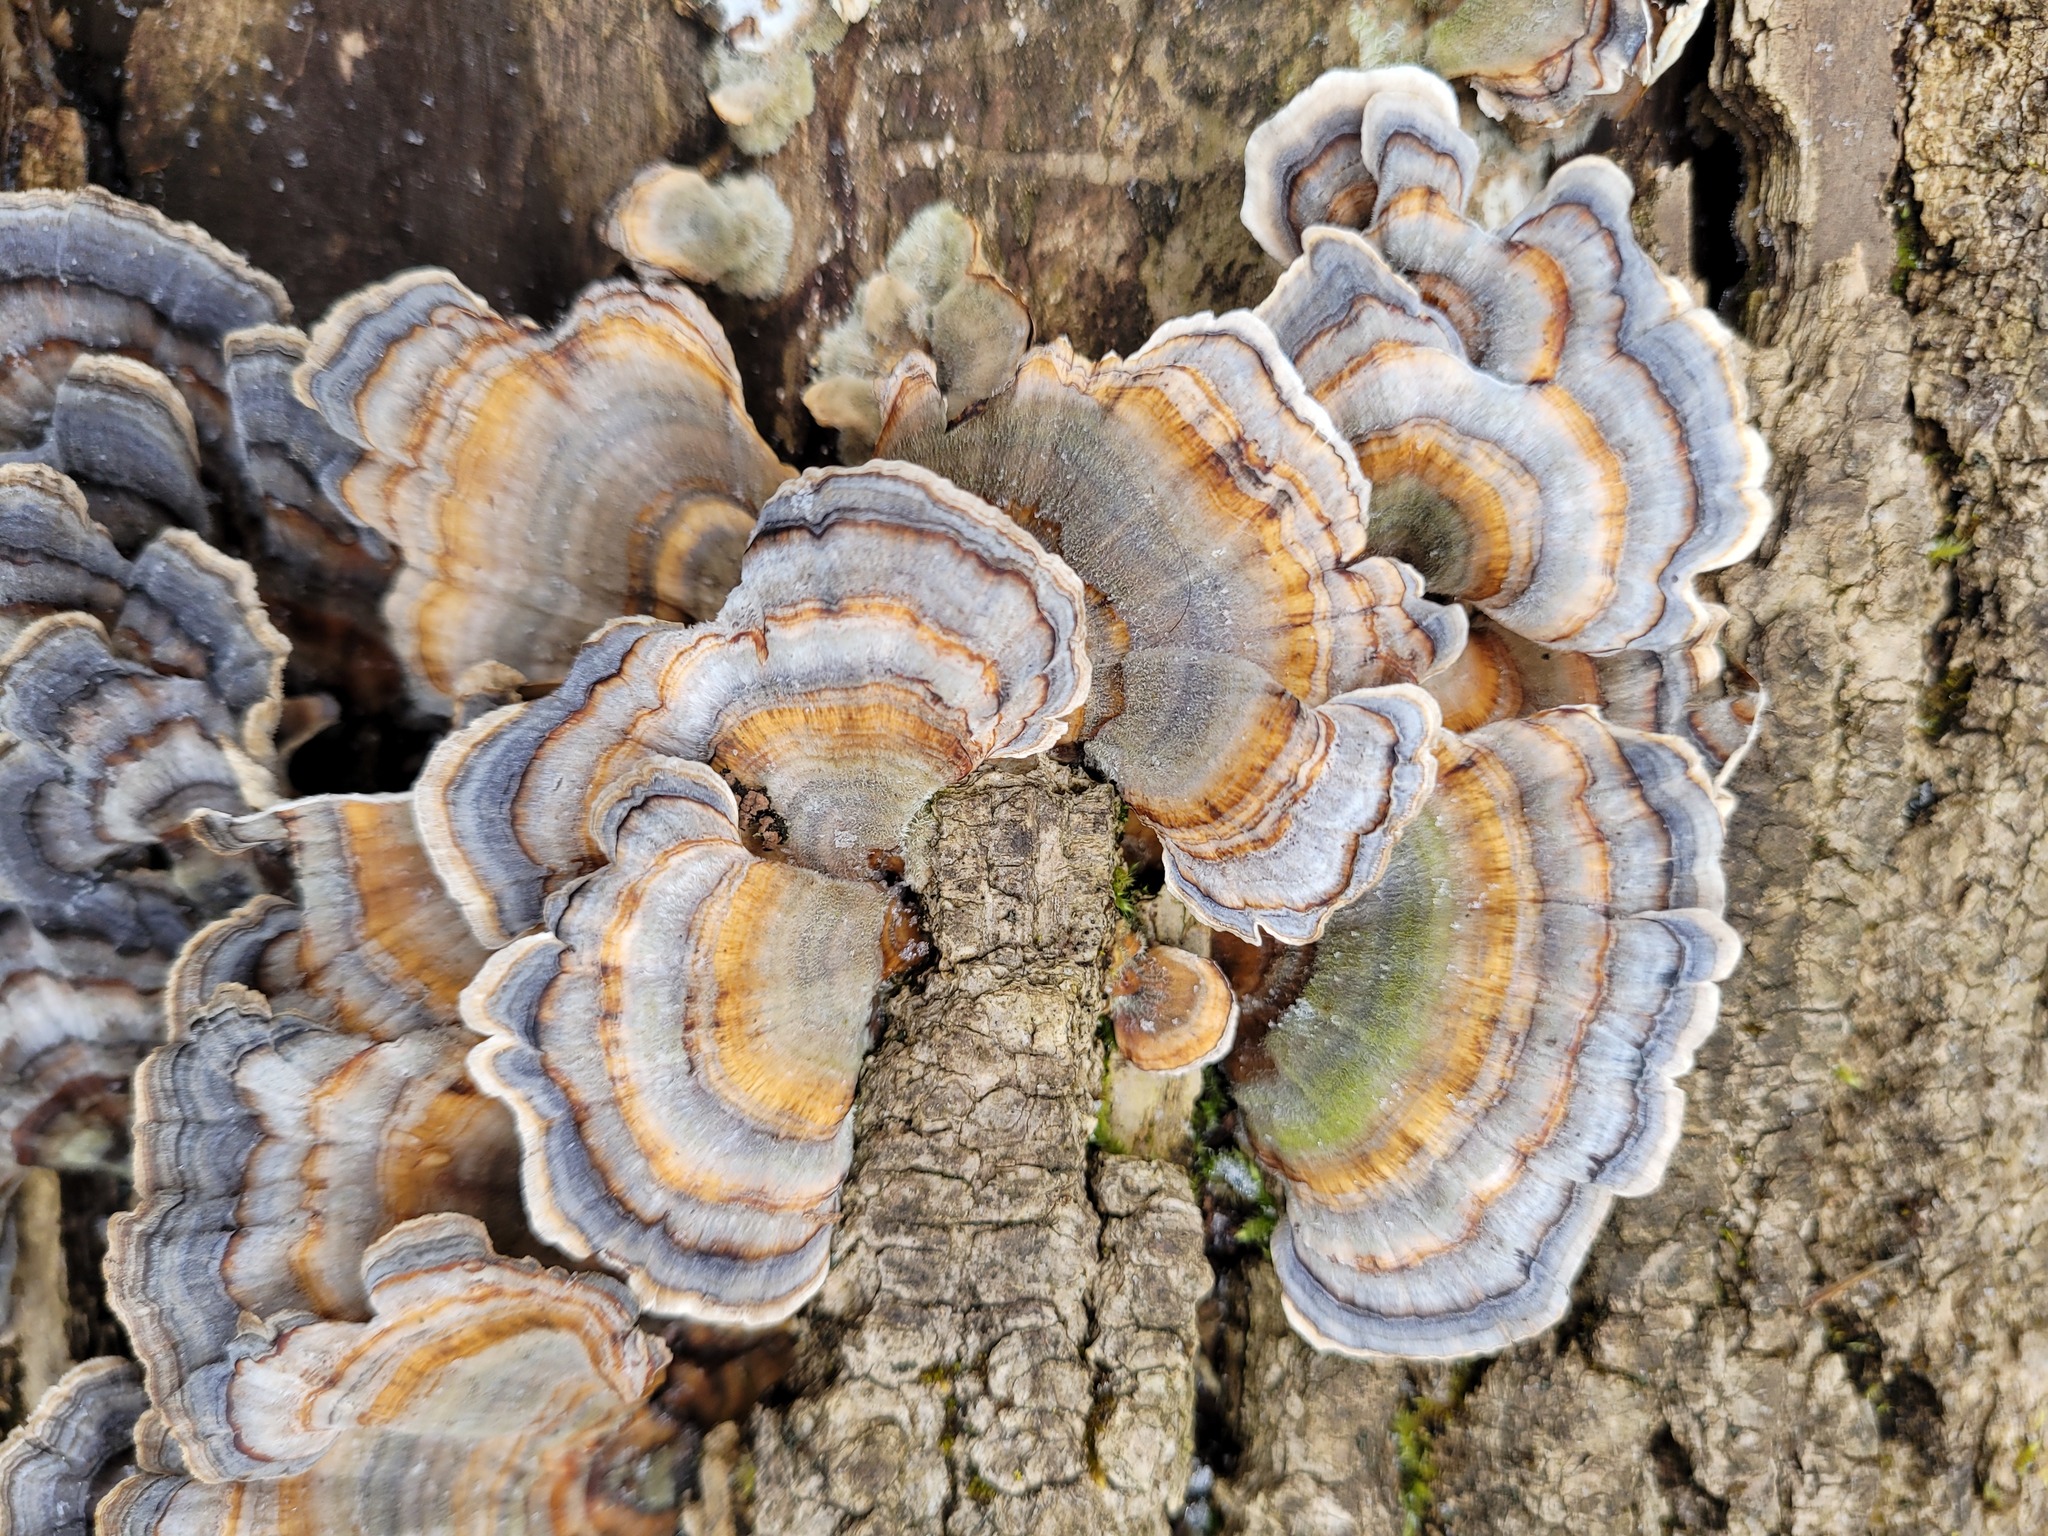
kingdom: Fungi
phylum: Basidiomycota
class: Agaricomycetes
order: Polyporales
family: Polyporaceae
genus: Trametes
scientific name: Trametes versicolor
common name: Turkeytail
